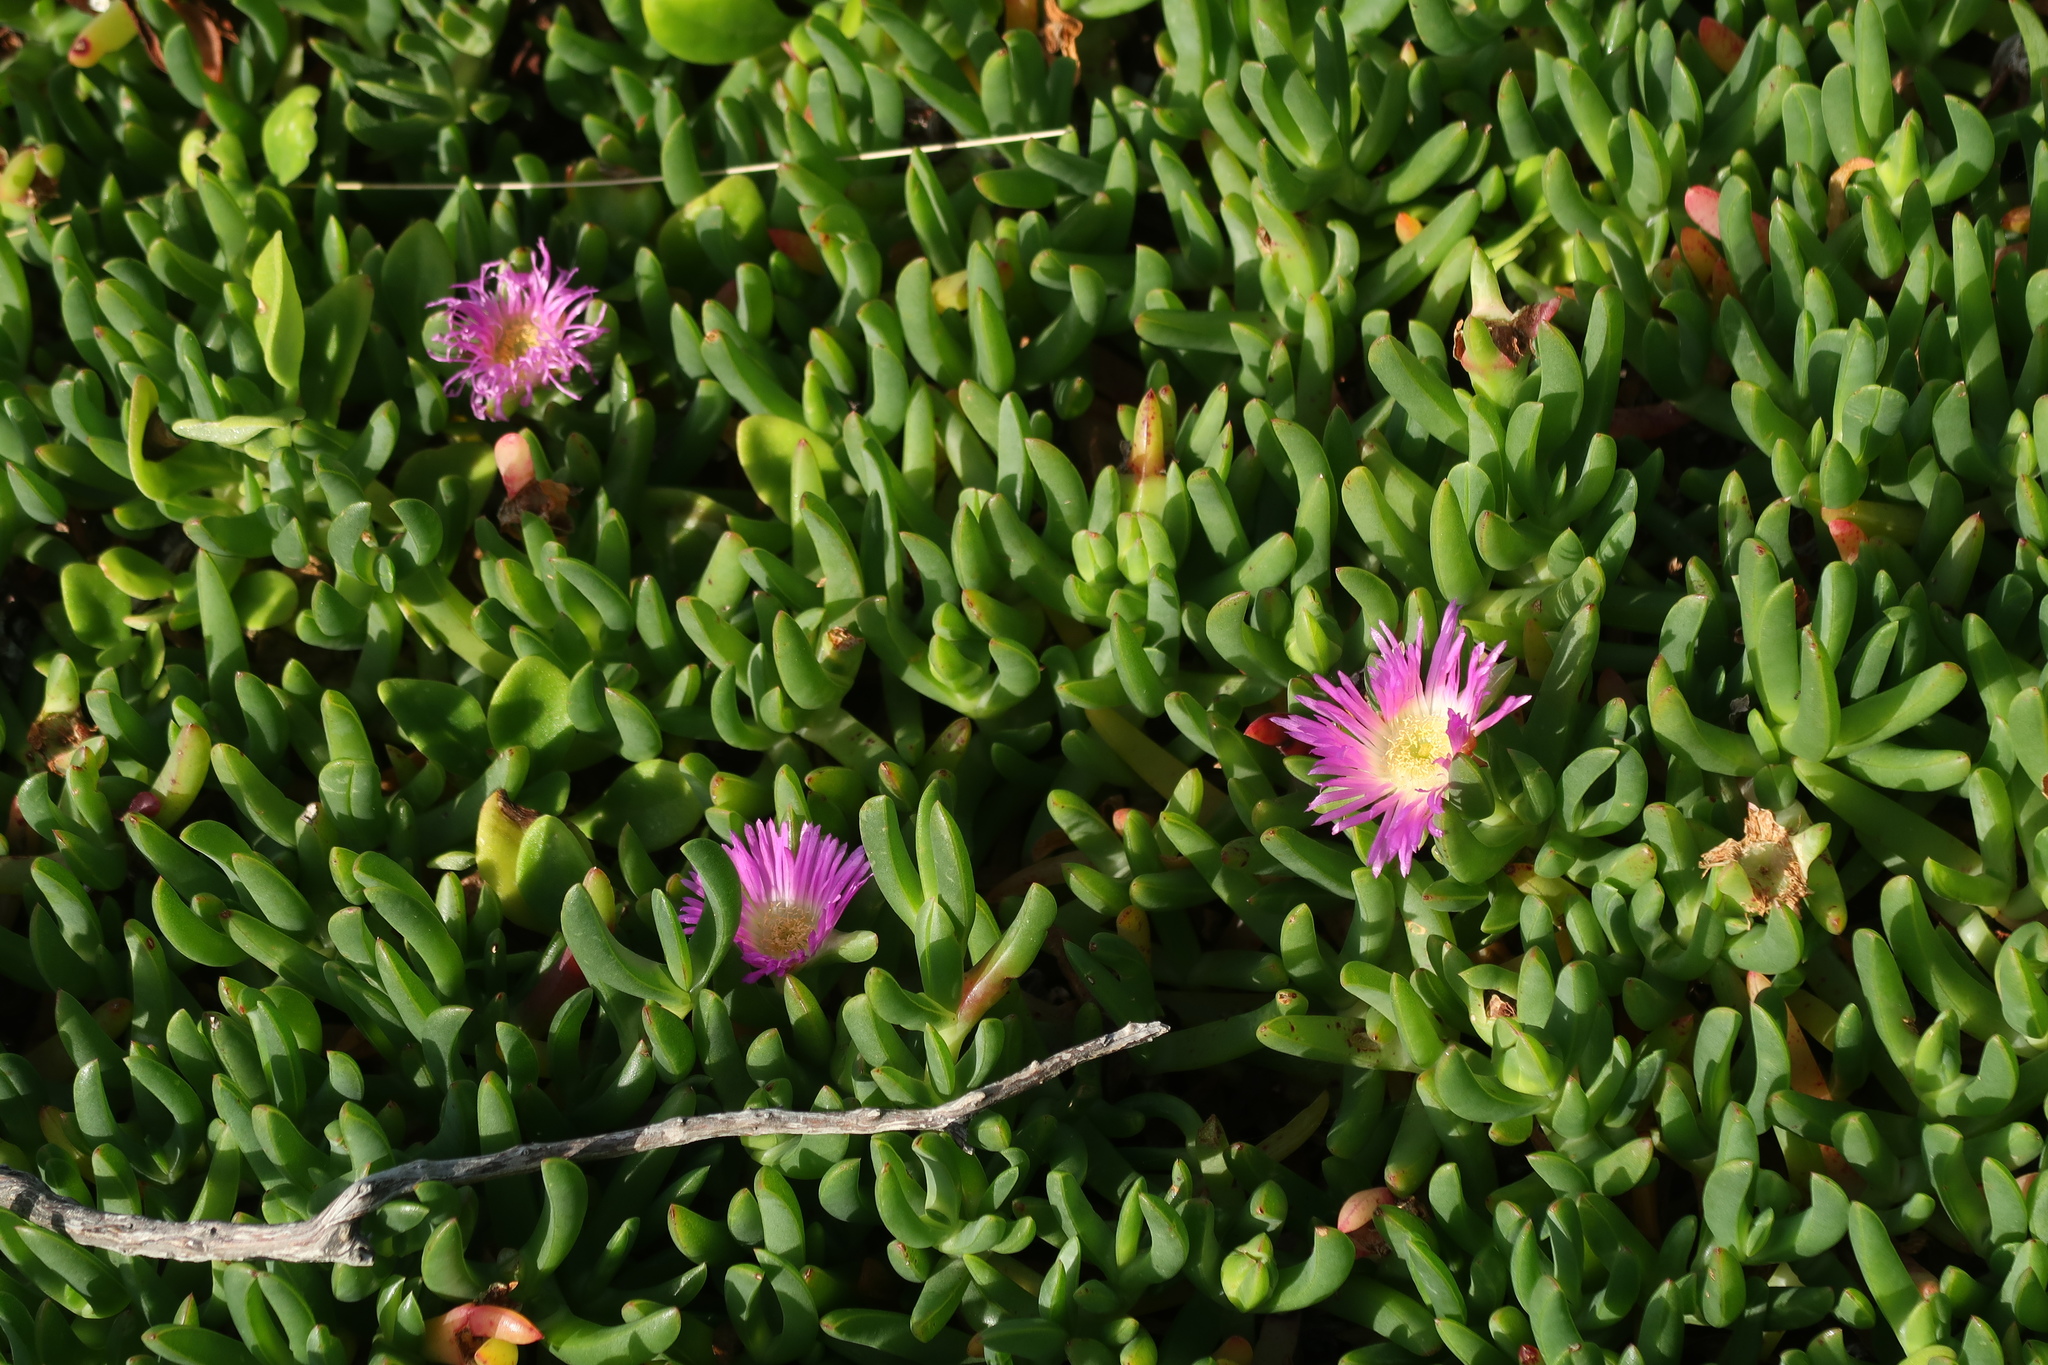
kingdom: Plantae
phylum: Tracheophyta
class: Magnoliopsida
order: Caryophyllales
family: Aizoaceae
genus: Carpobrotus
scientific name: Carpobrotus rossii
